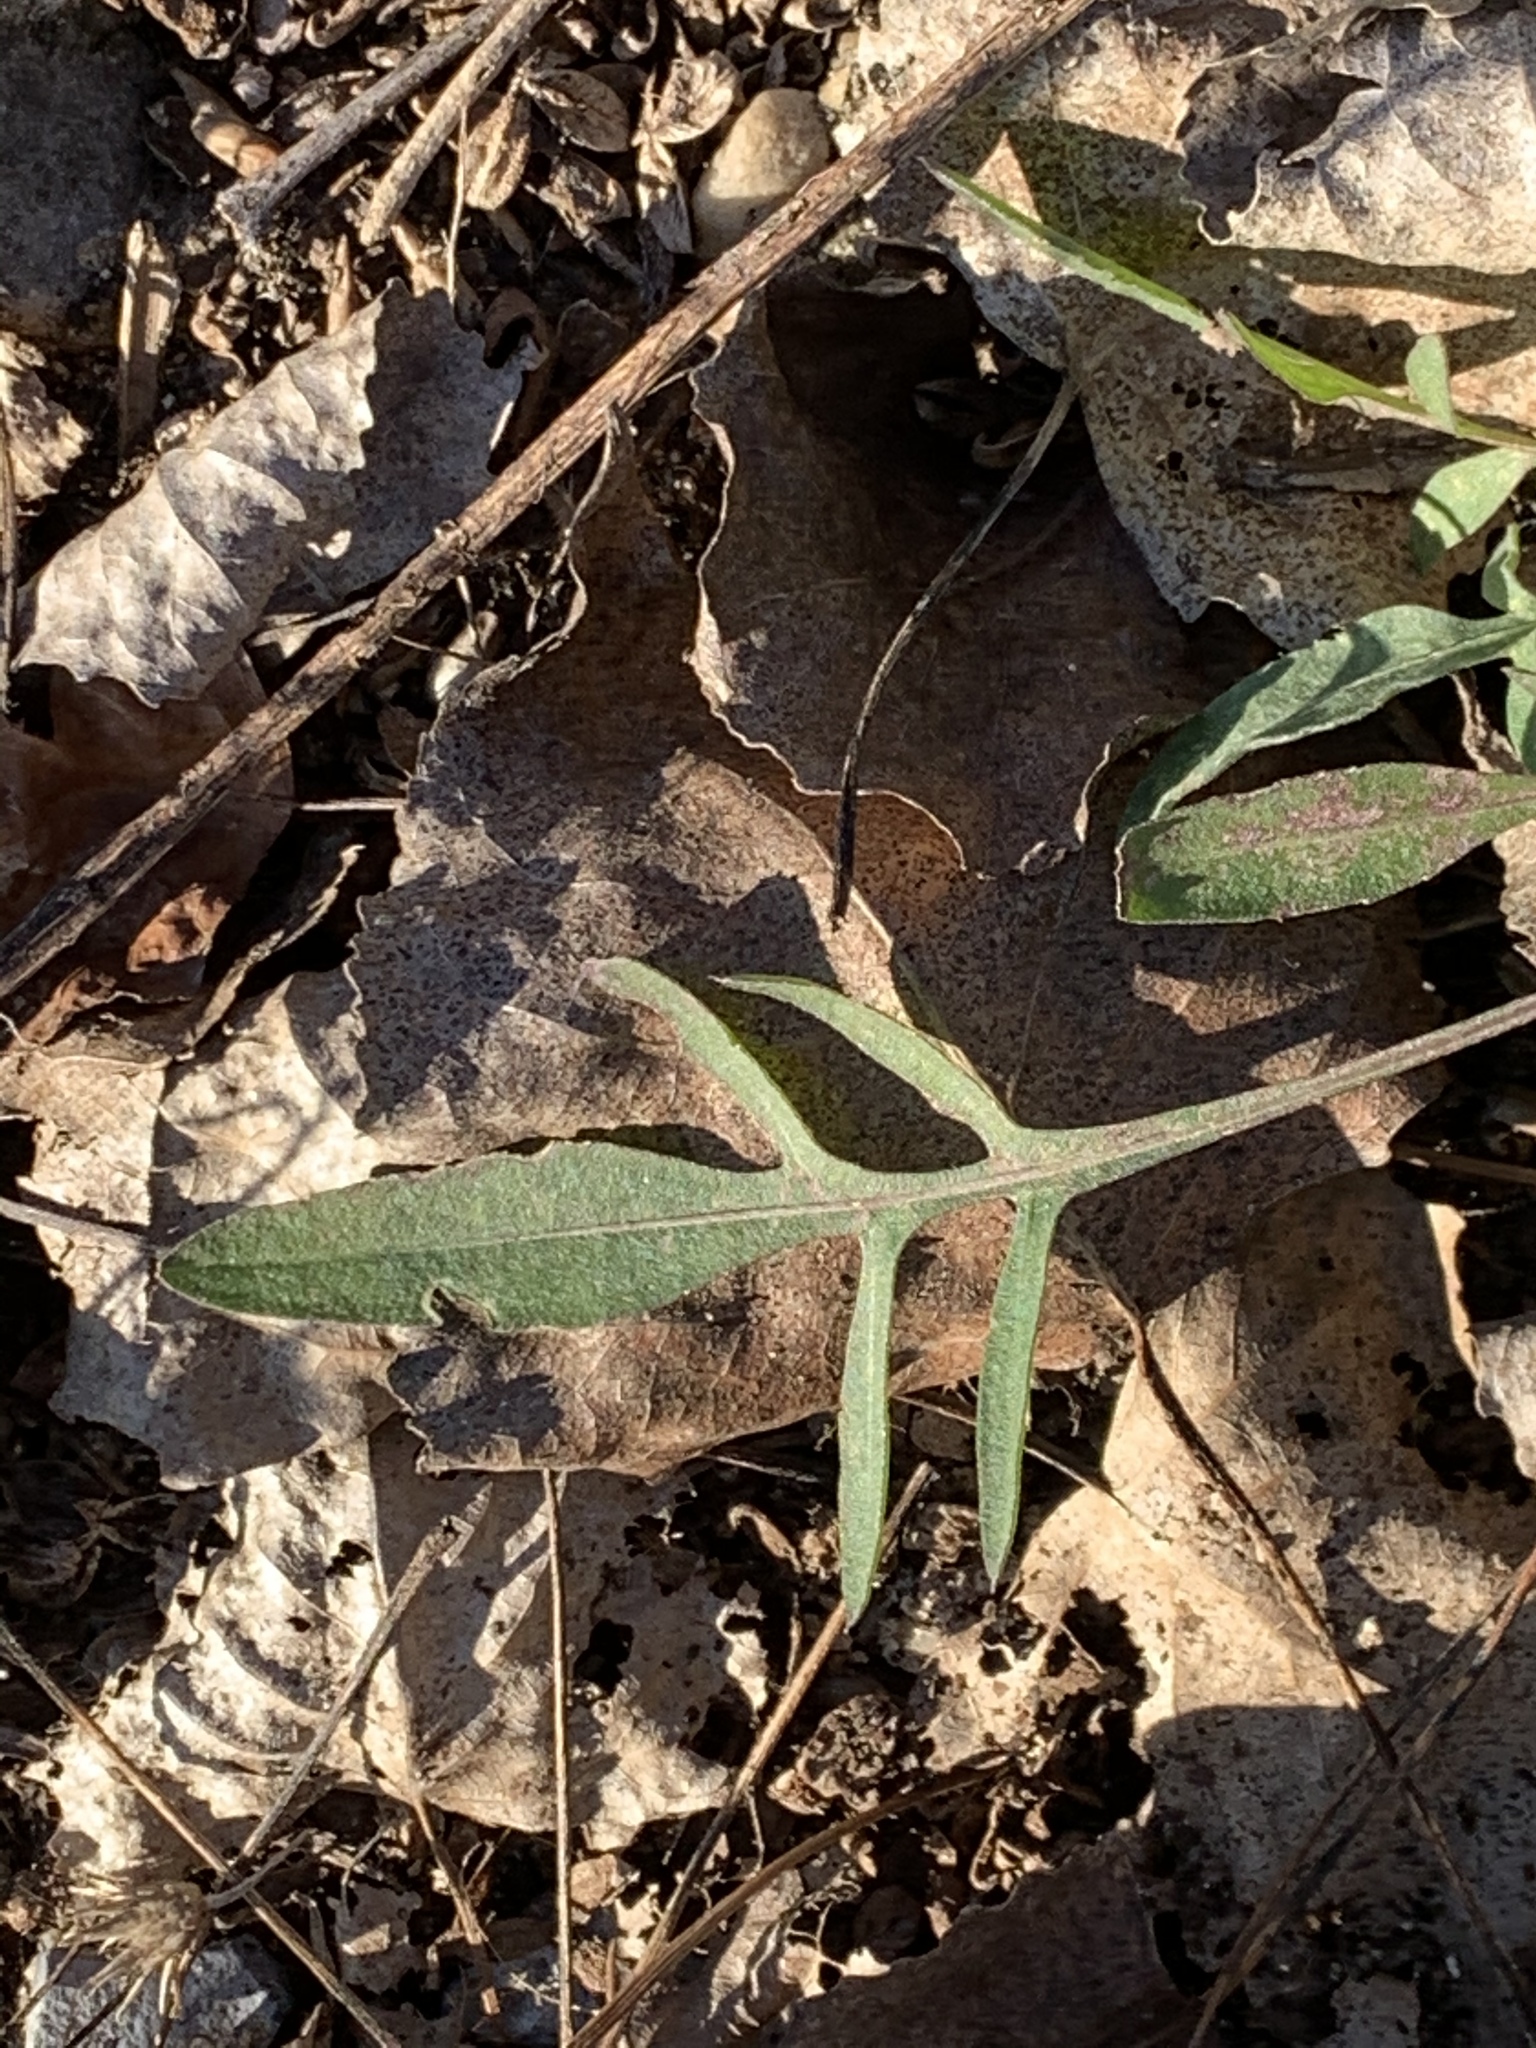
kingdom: Plantae
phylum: Tracheophyta
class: Magnoliopsida
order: Asterales
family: Asteraceae
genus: Centaurea
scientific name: Centaurea stoebe
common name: Spotted knapweed
